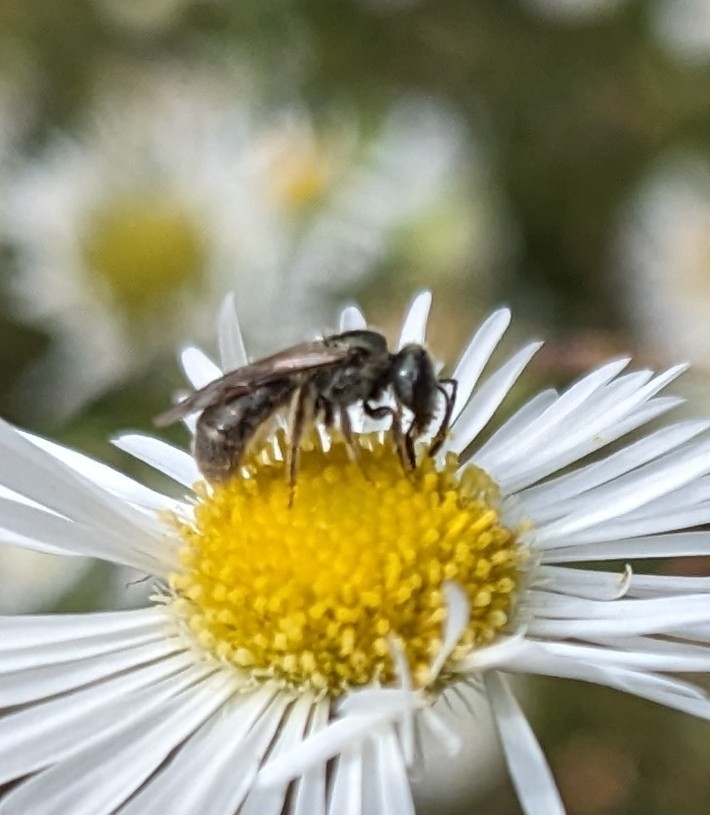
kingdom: Animalia
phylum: Arthropoda
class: Insecta
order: Hymenoptera
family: Halictidae
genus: Dialictus
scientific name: Dialictus
